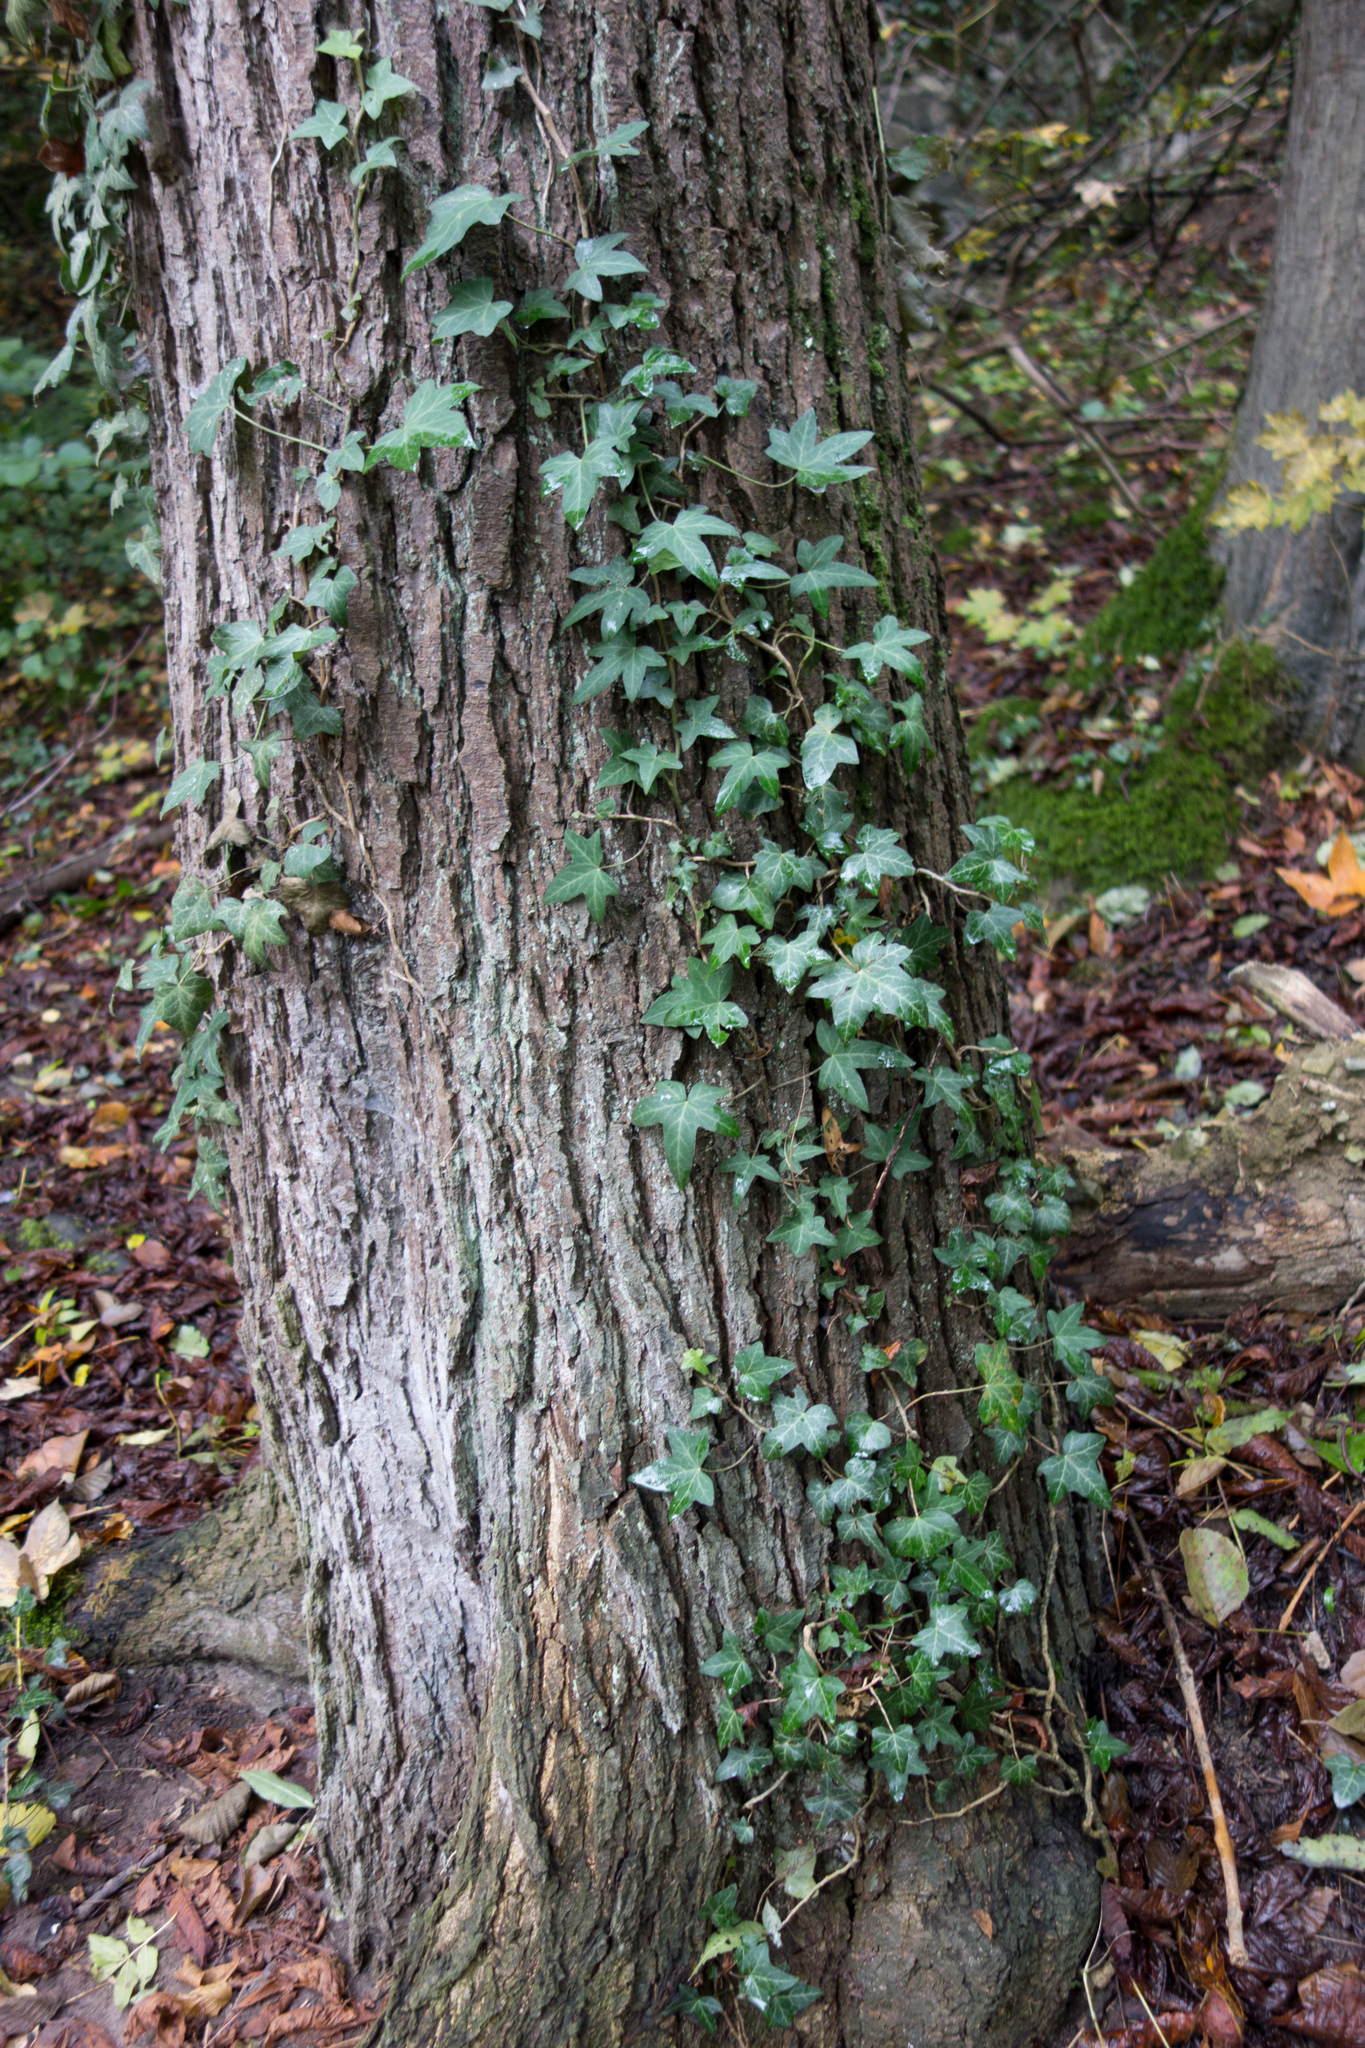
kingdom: Plantae
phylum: Tracheophyta
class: Magnoliopsida
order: Apiales
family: Araliaceae
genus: Hedera
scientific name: Hedera helix
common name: Ivy
